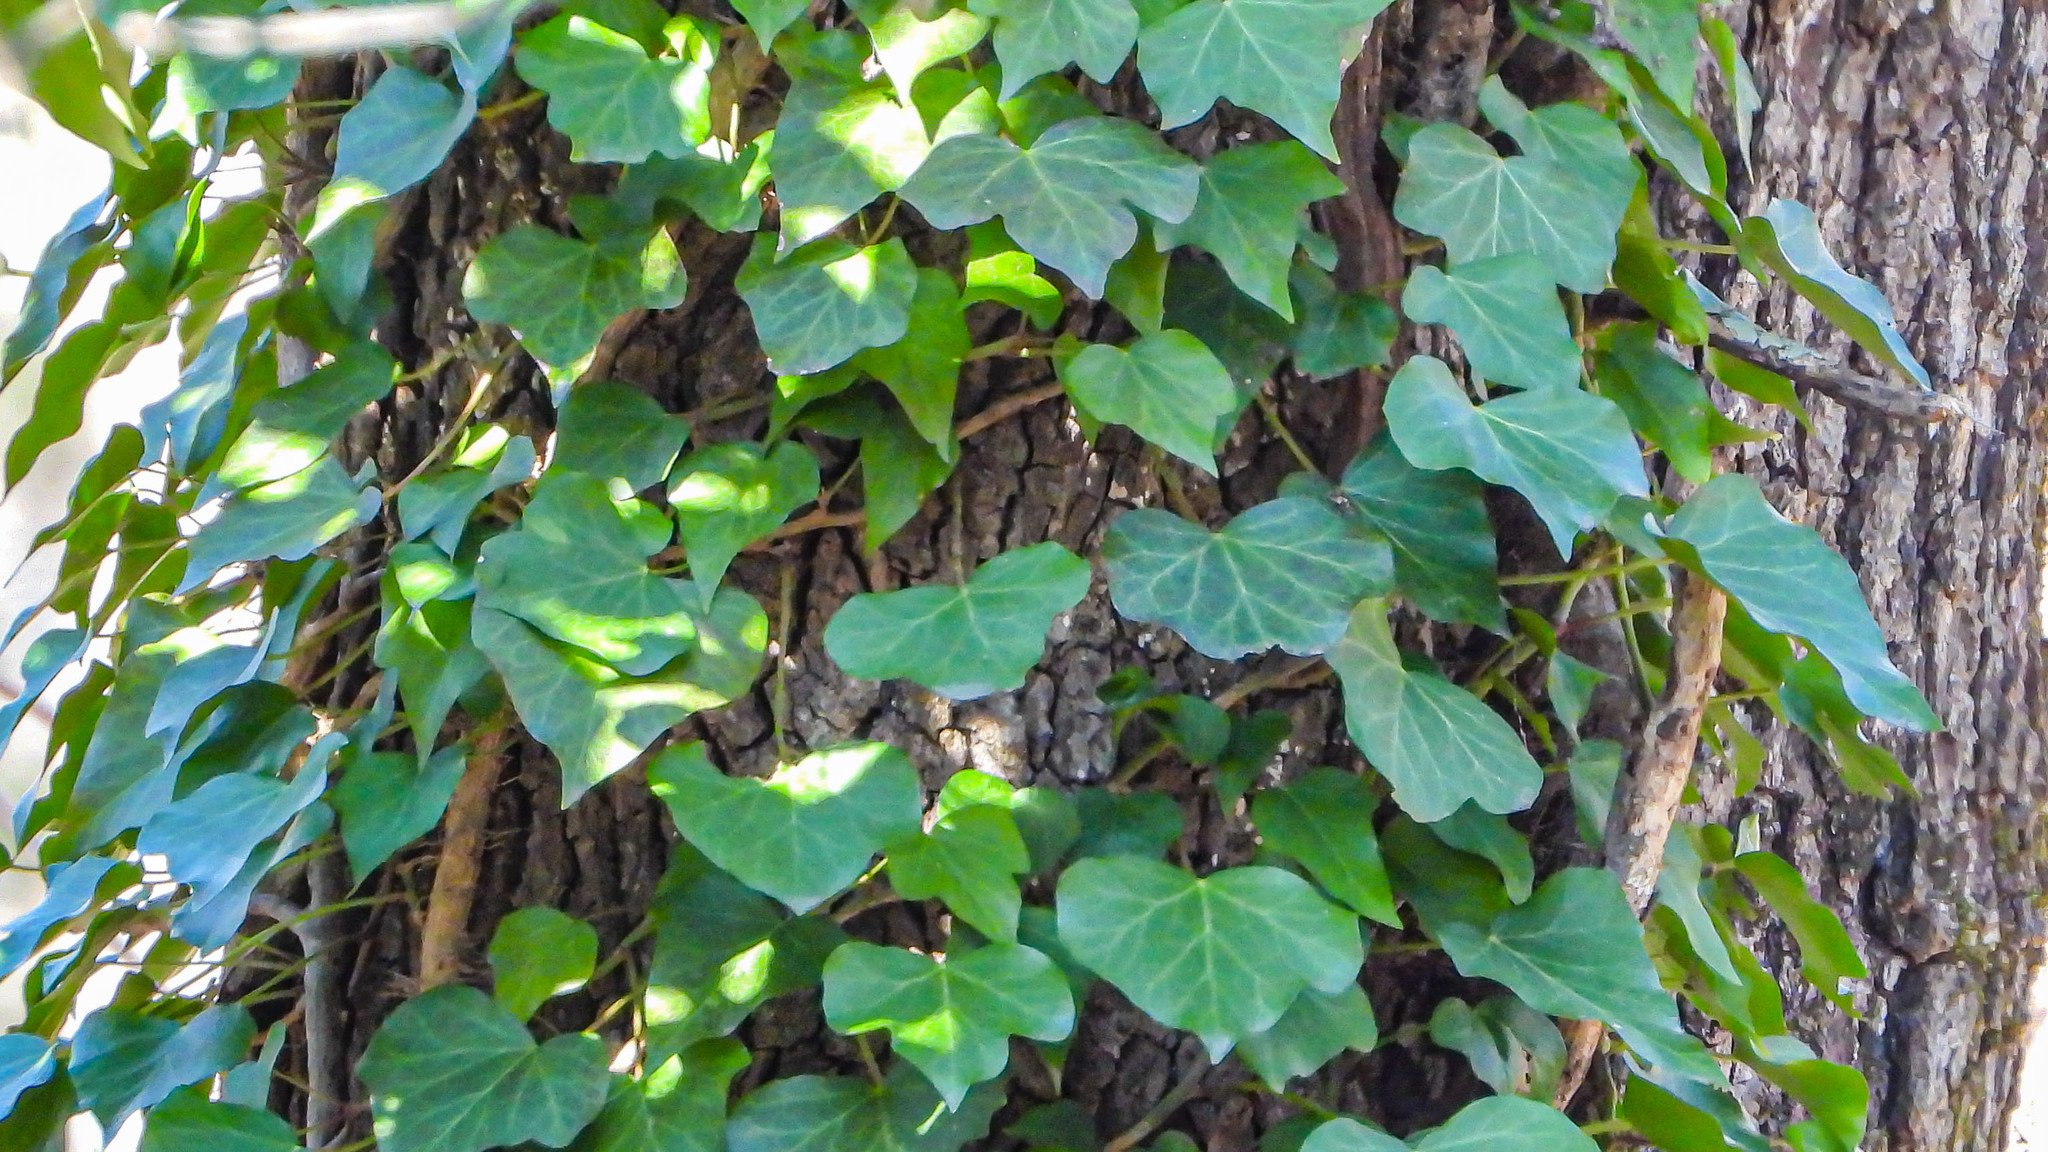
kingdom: Plantae
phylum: Tracheophyta
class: Magnoliopsida
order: Apiales
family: Araliaceae
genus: Hedera
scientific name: Hedera helix
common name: Ivy
